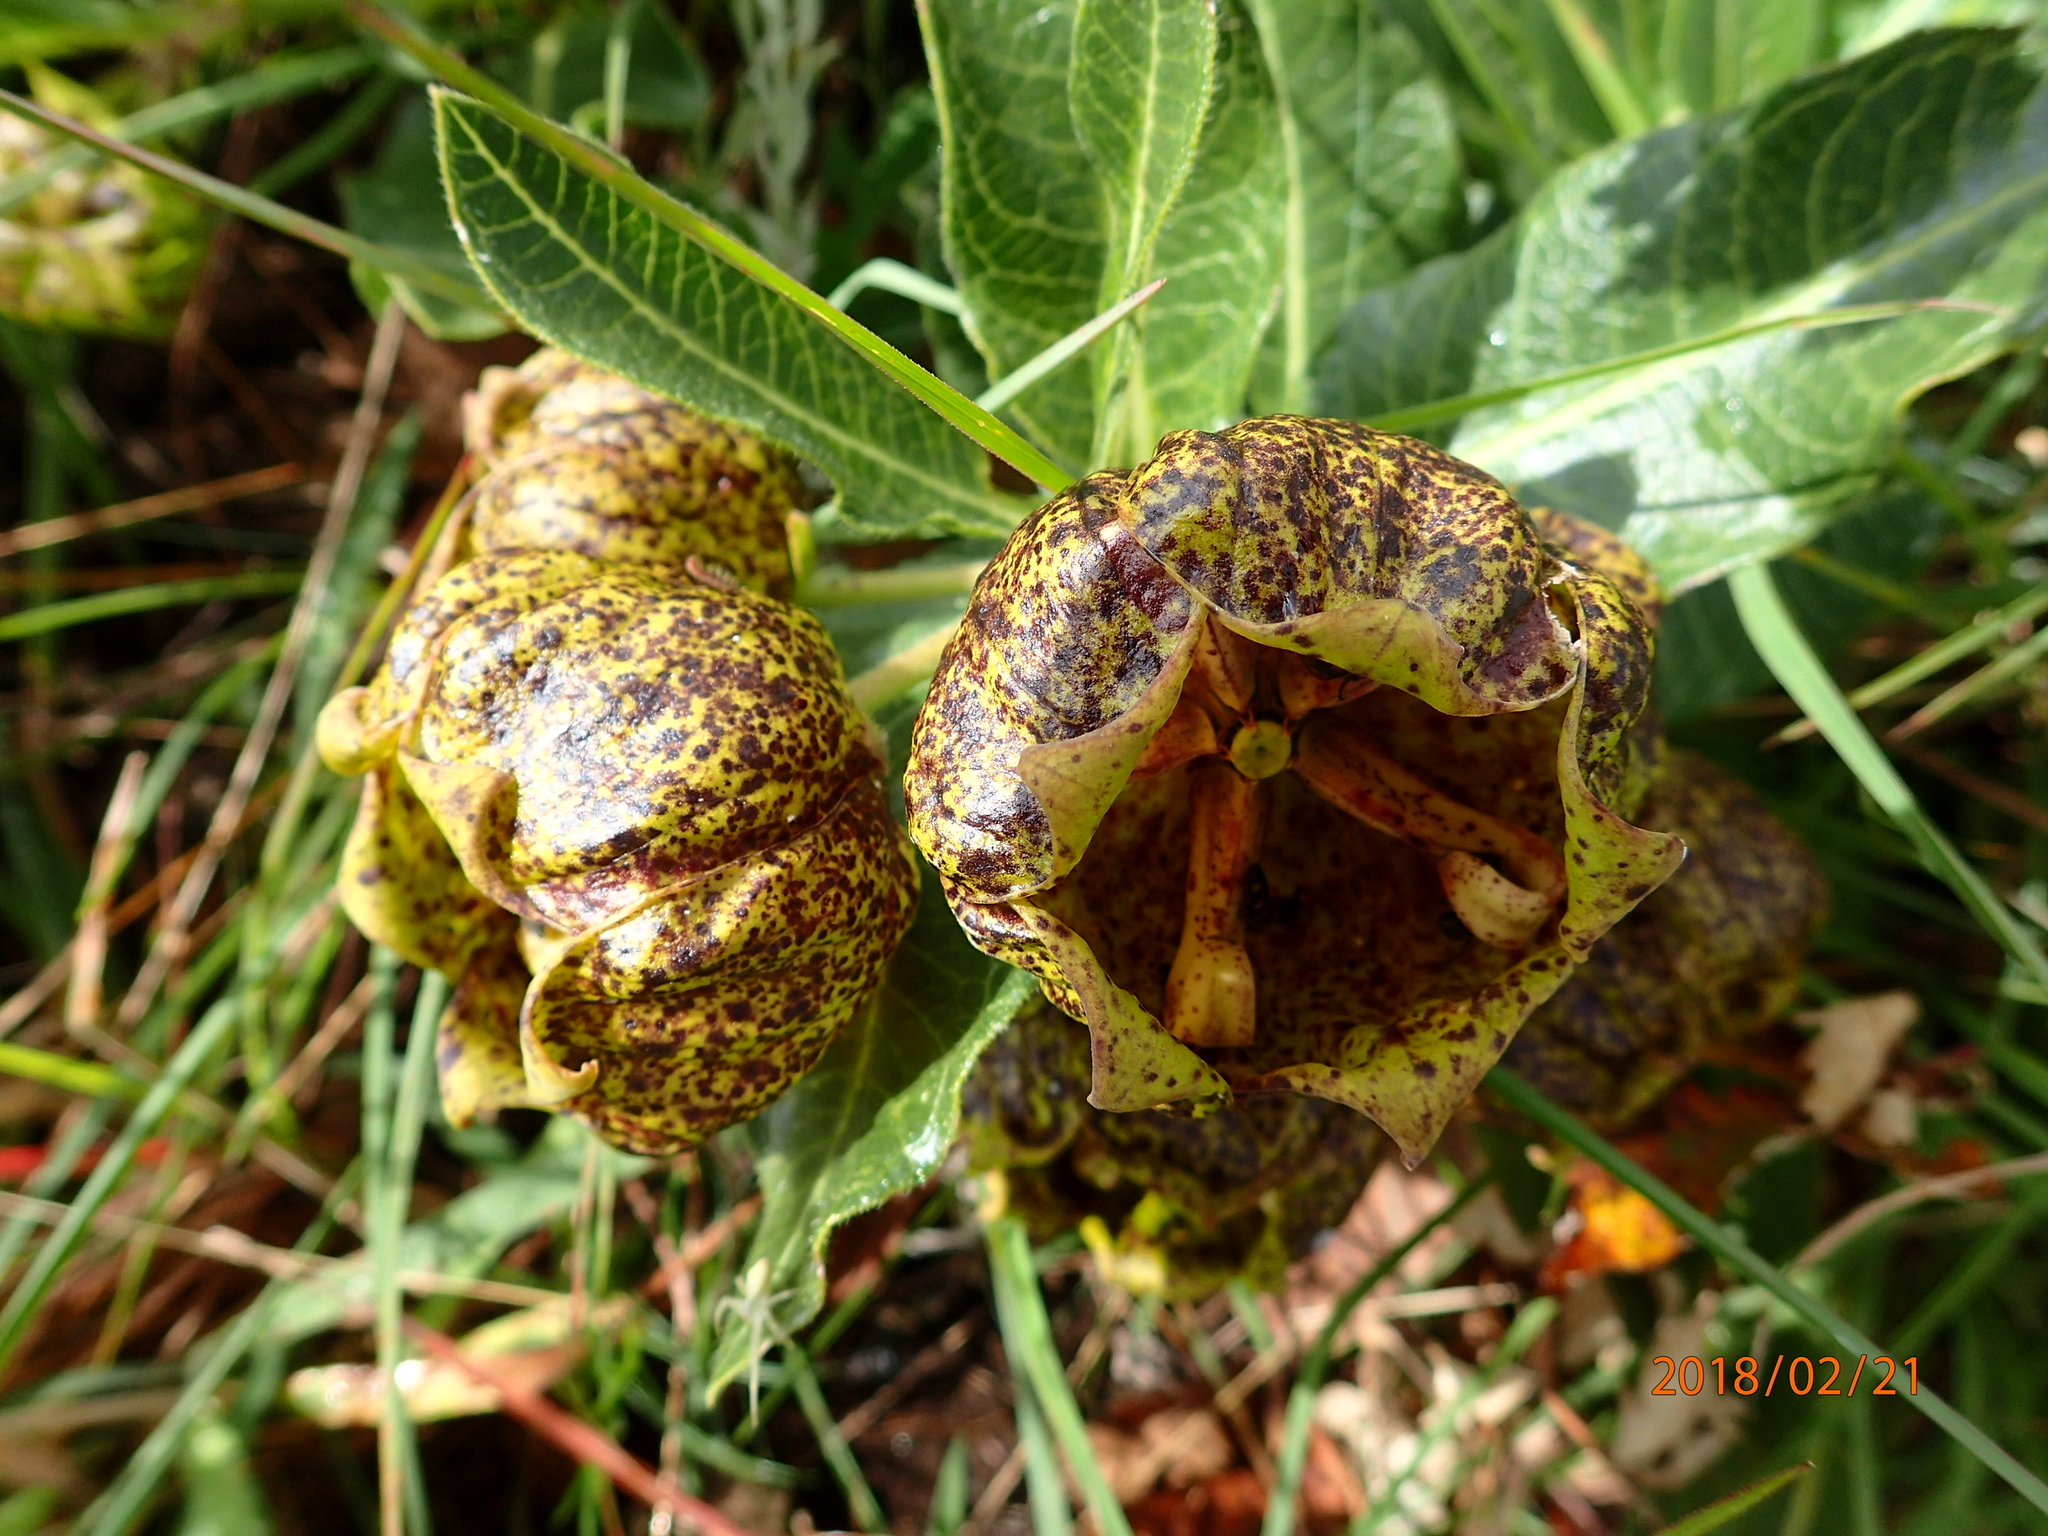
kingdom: Plantae
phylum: Tracheophyta
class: Magnoliopsida
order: Gentianales
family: Apocynaceae
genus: Pachycarpus
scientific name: Pachycarpus grandiflorus
